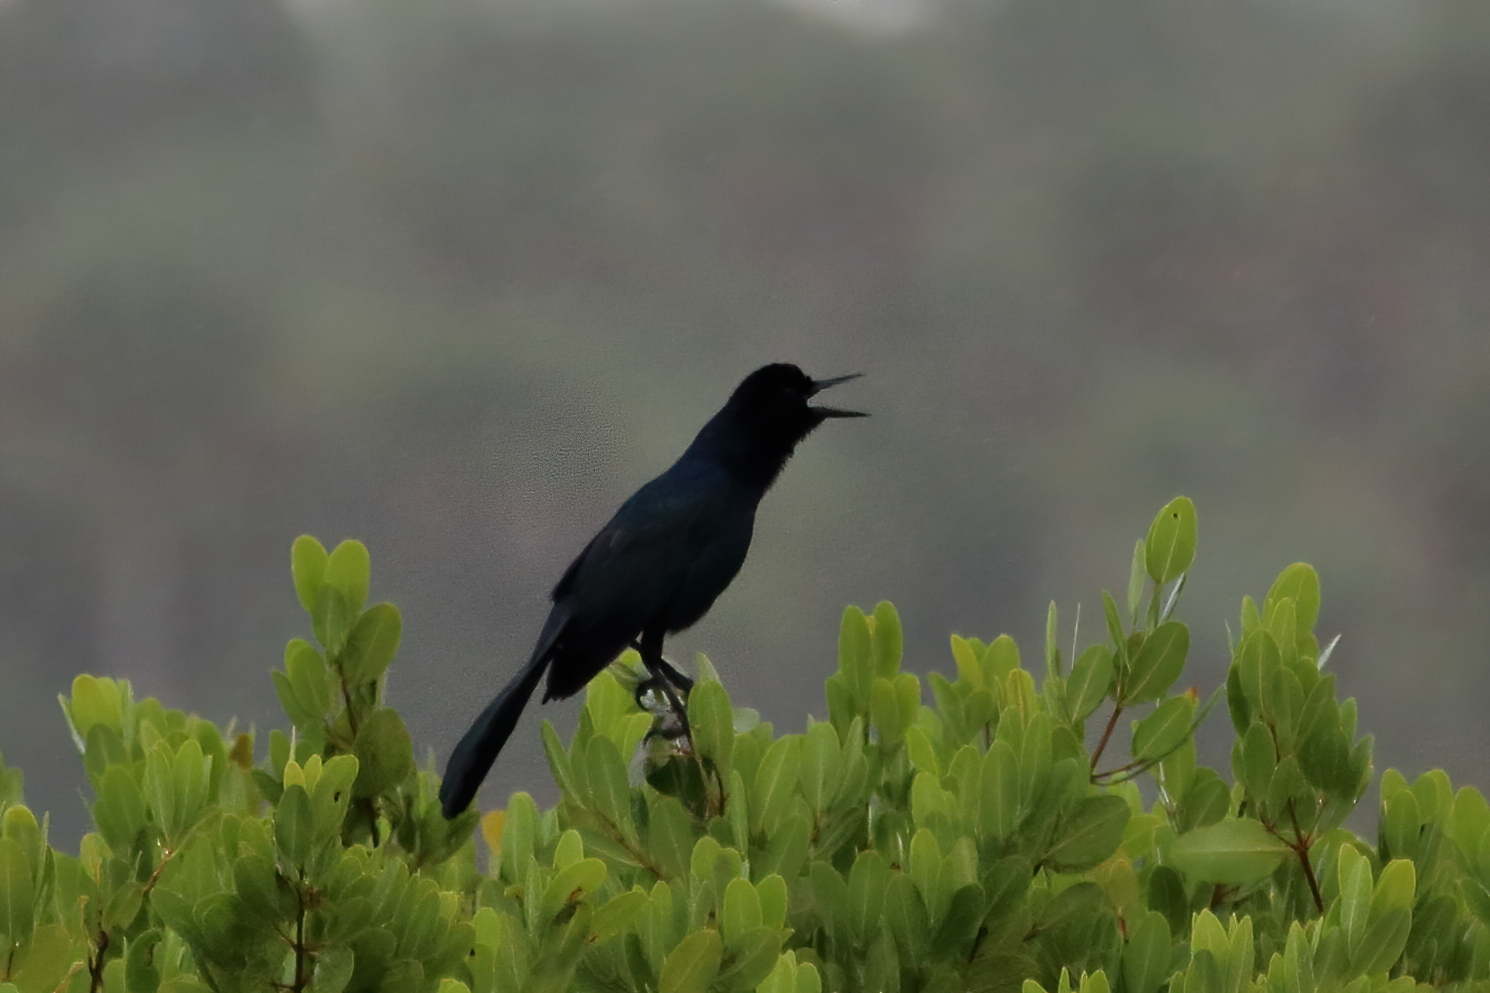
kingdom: Animalia
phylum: Chordata
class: Aves
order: Passeriformes
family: Icteridae
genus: Quiscalus
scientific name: Quiscalus major
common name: Boat-tailed grackle
